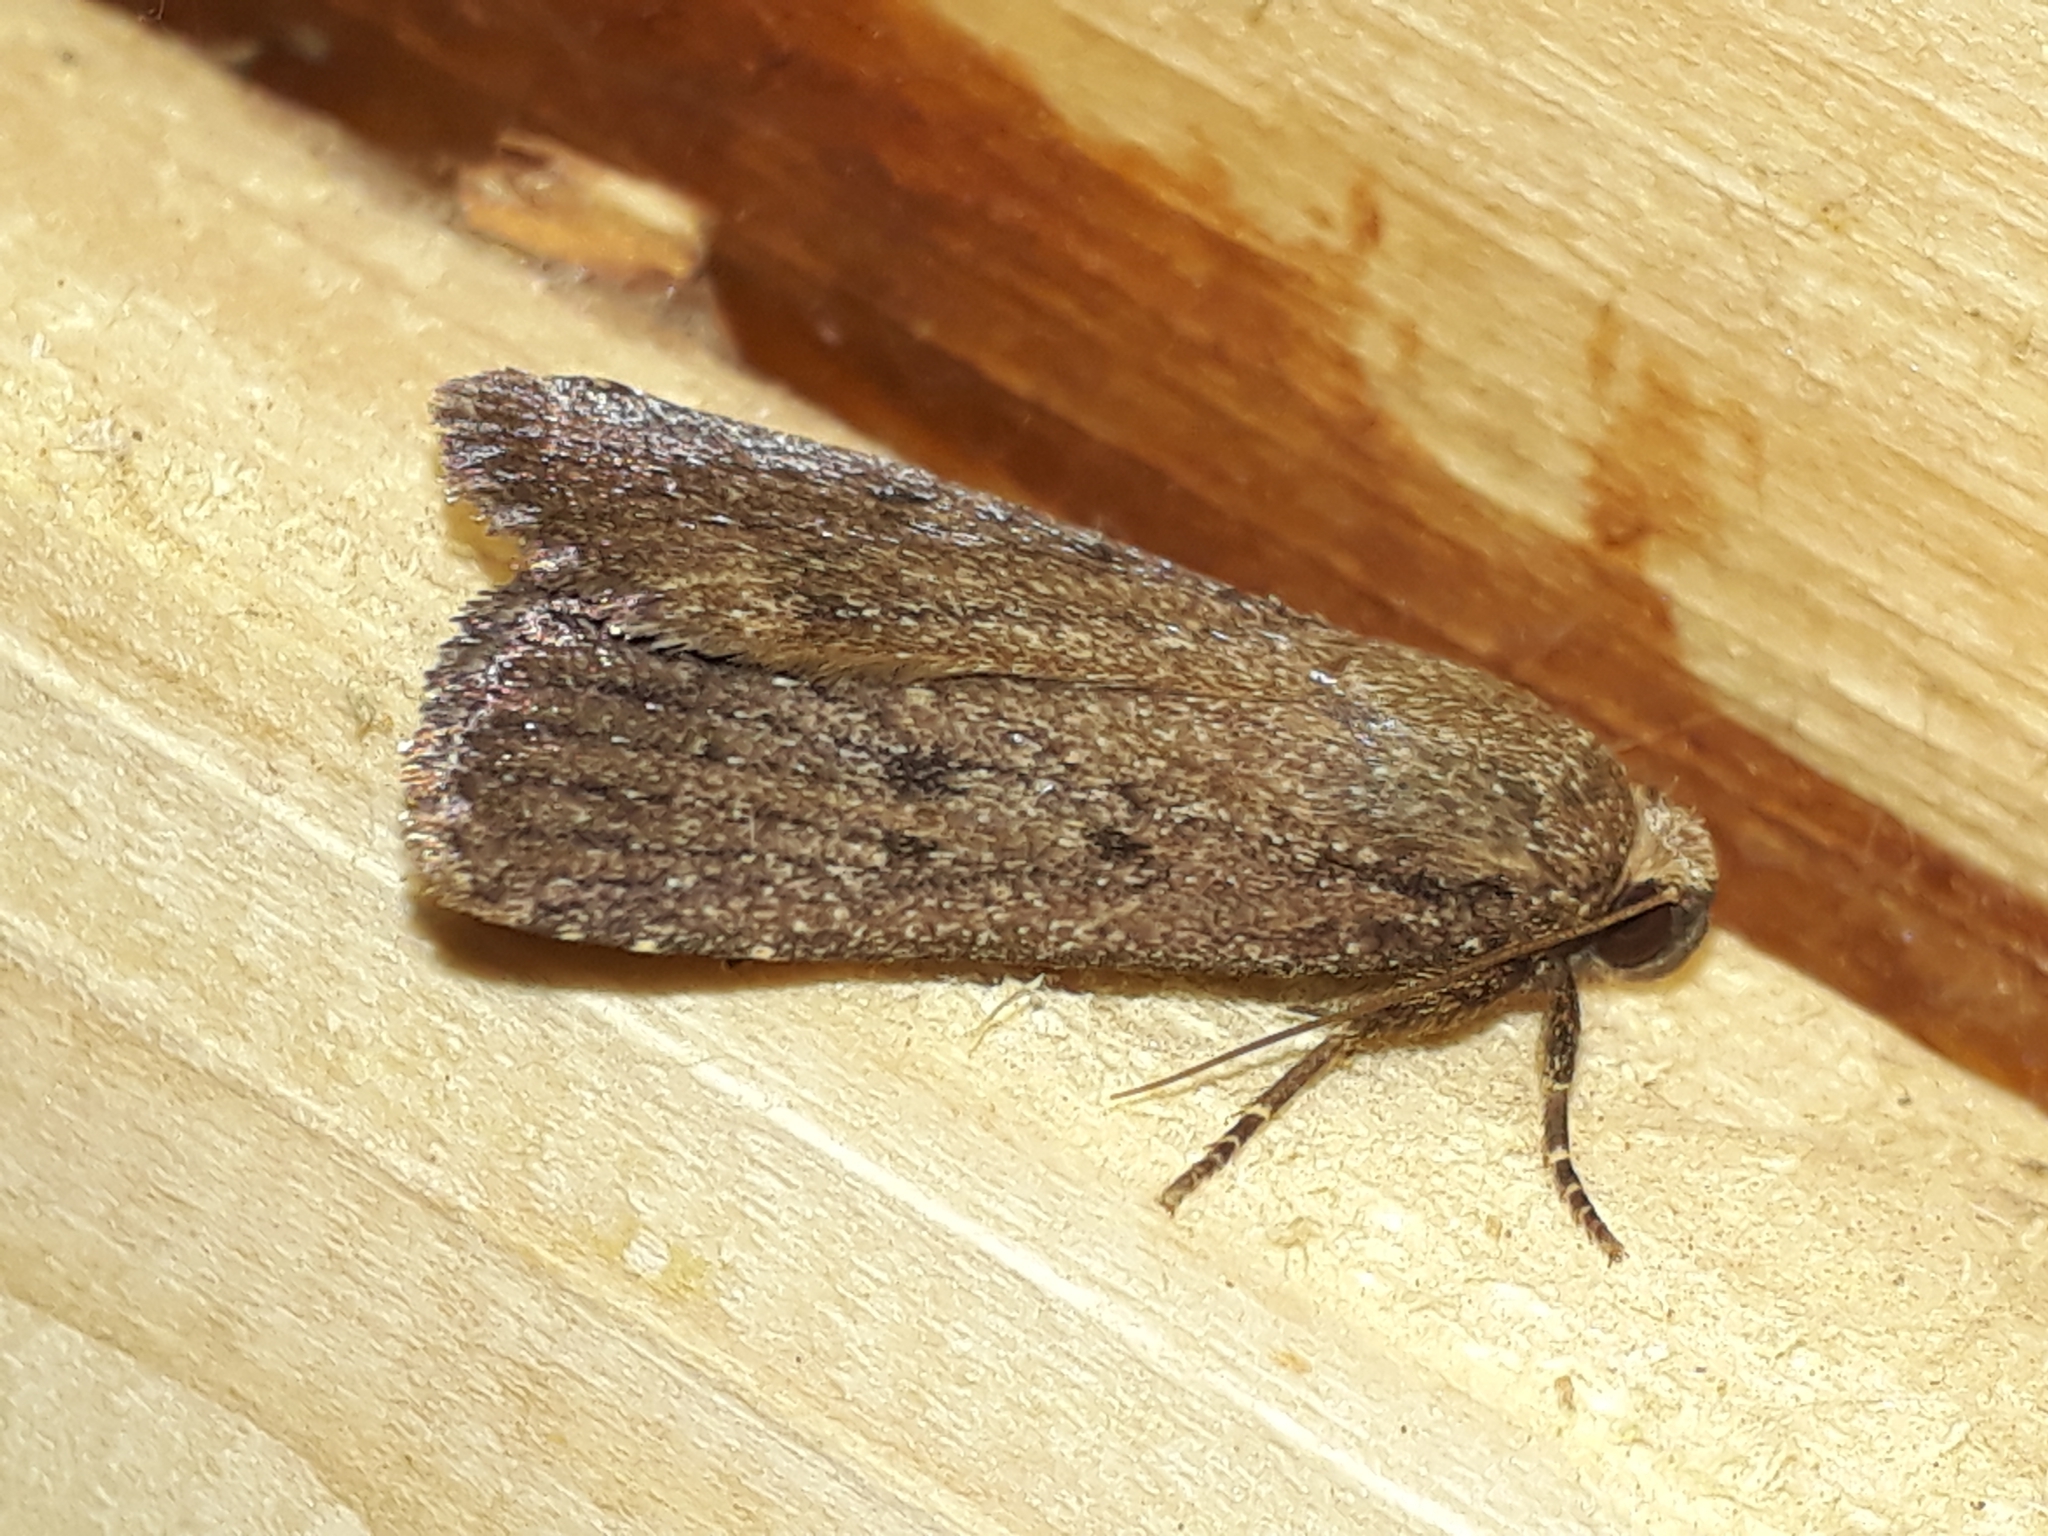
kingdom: Animalia
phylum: Arthropoda
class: Insecta
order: Lepidoptera
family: Noctuidae
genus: Amphipyra
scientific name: Amphipyra tragopoginis
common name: Mouse moth
